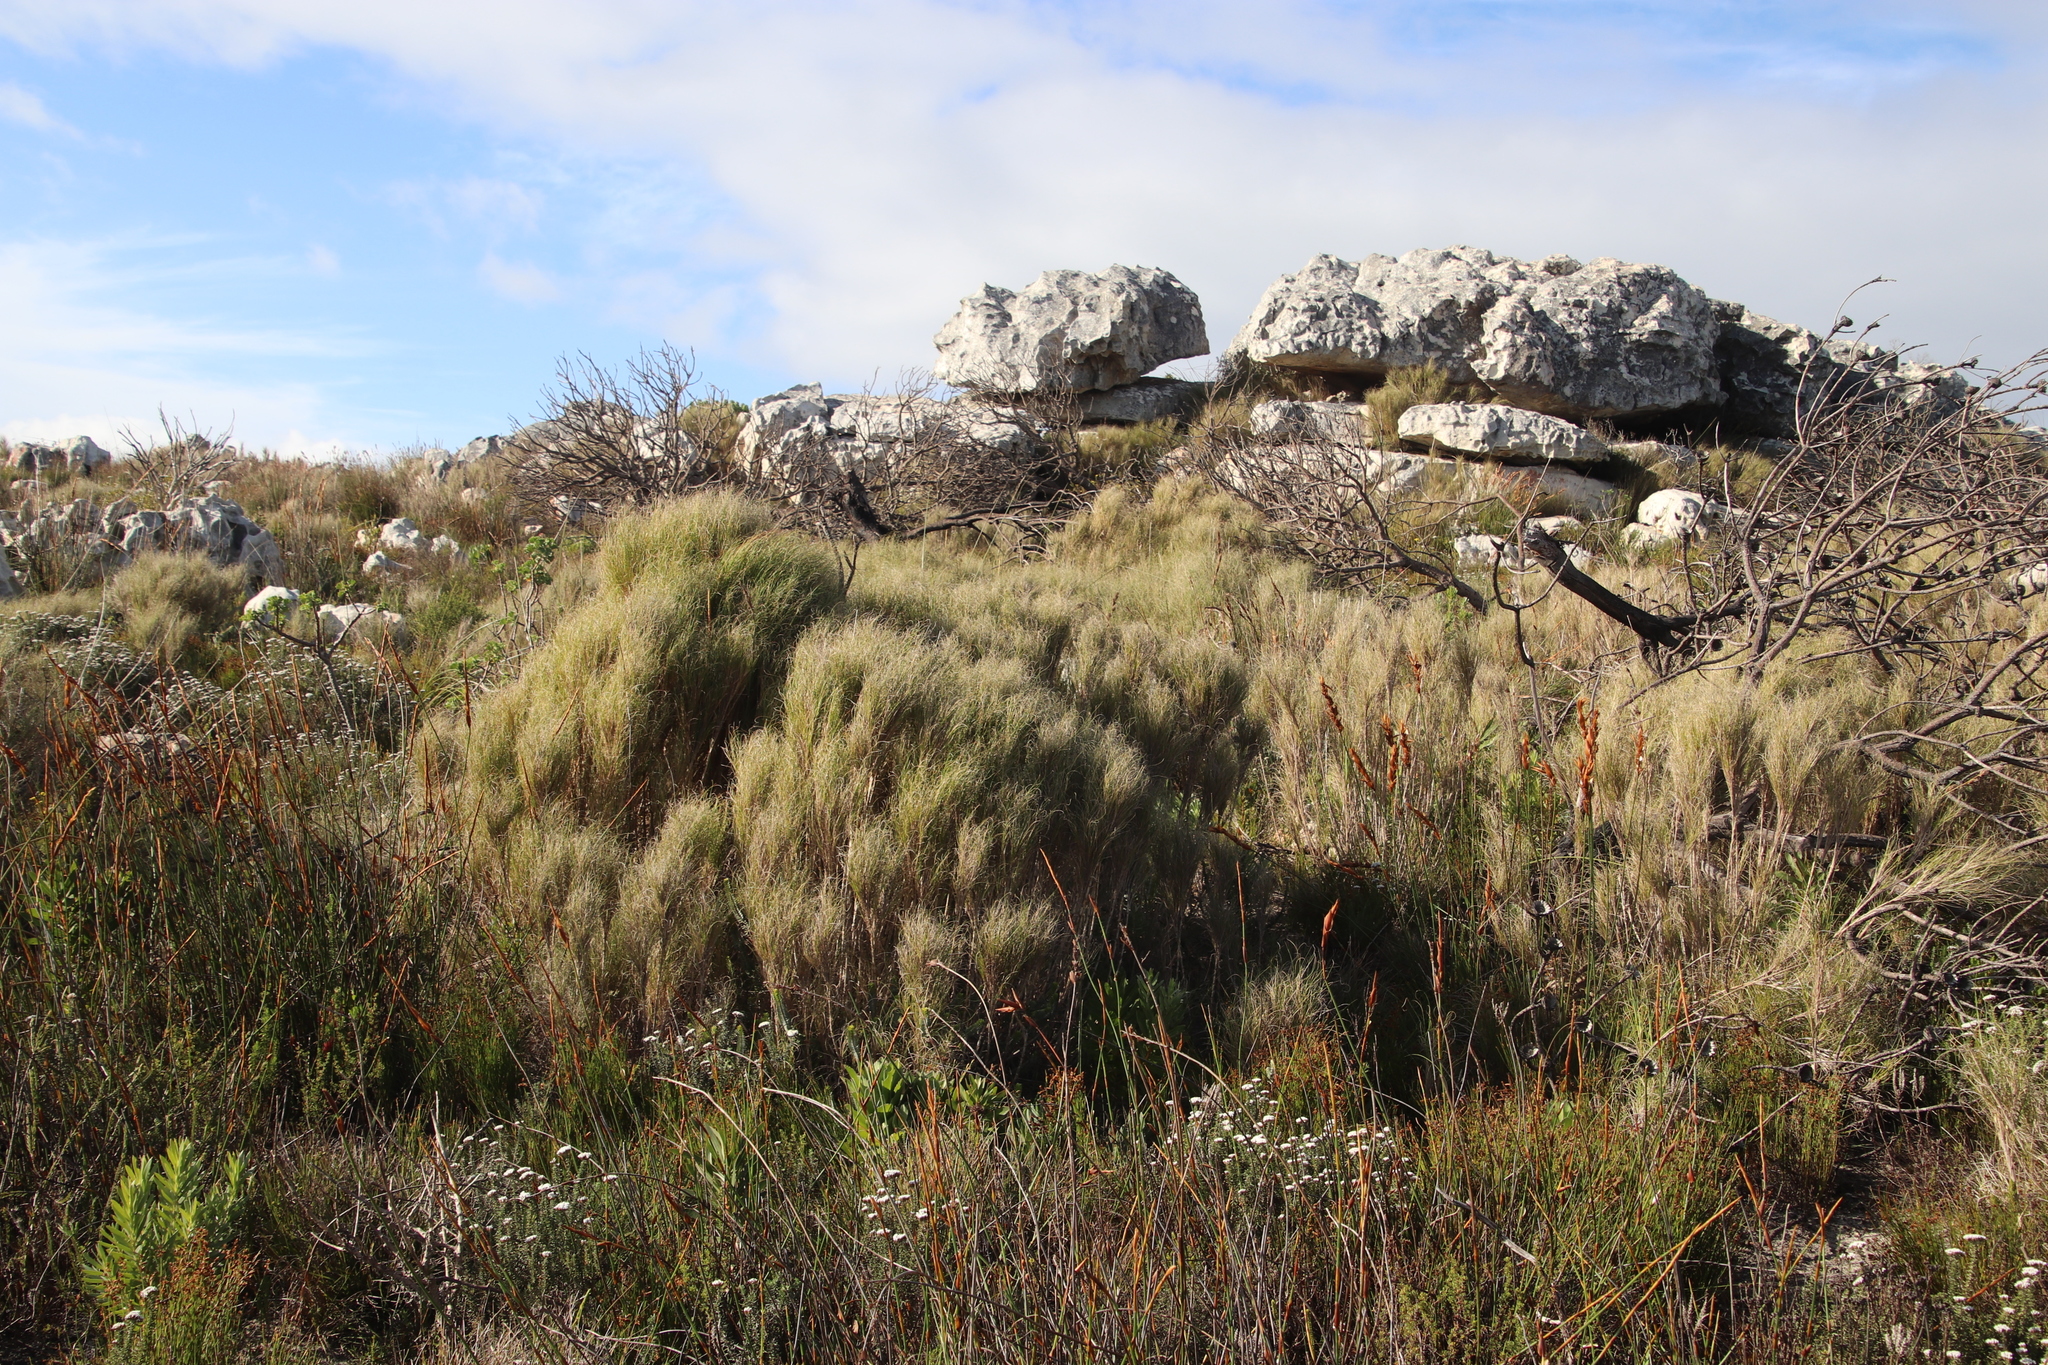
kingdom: Plantae
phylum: Tracheophyta
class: Liliopsida
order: Poales
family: Poaceae
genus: Pseudopentameris
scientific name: Pseudopentameris macrantha
